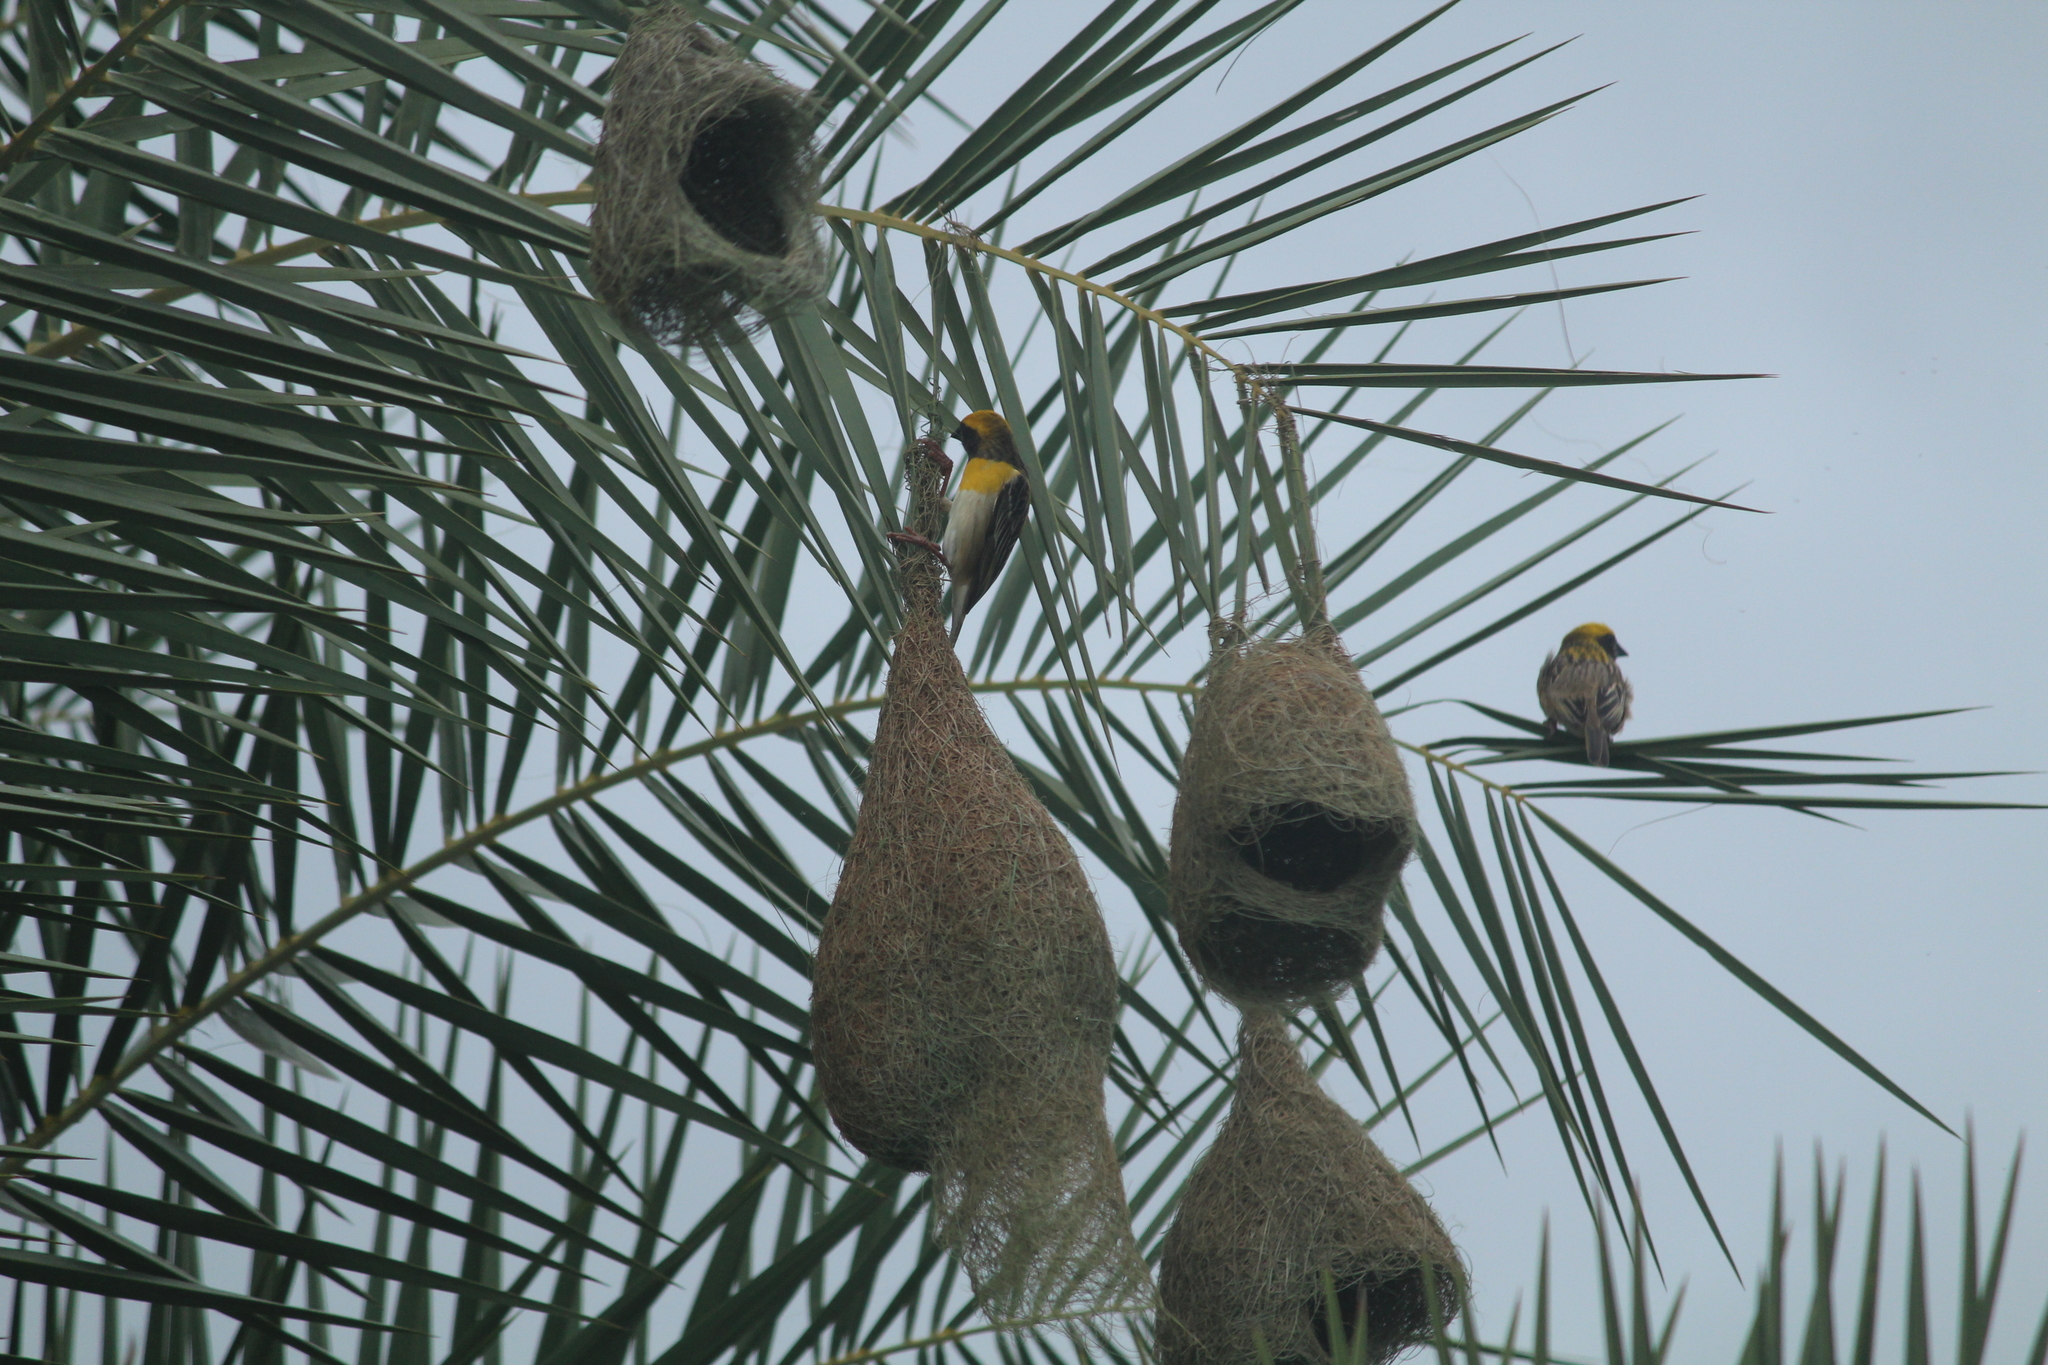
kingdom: Animalia
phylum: Chordata
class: Aves
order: Passeriformes
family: Ploceidae
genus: Ploceus
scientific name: Ploceus philippinus
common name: Baya weaver
